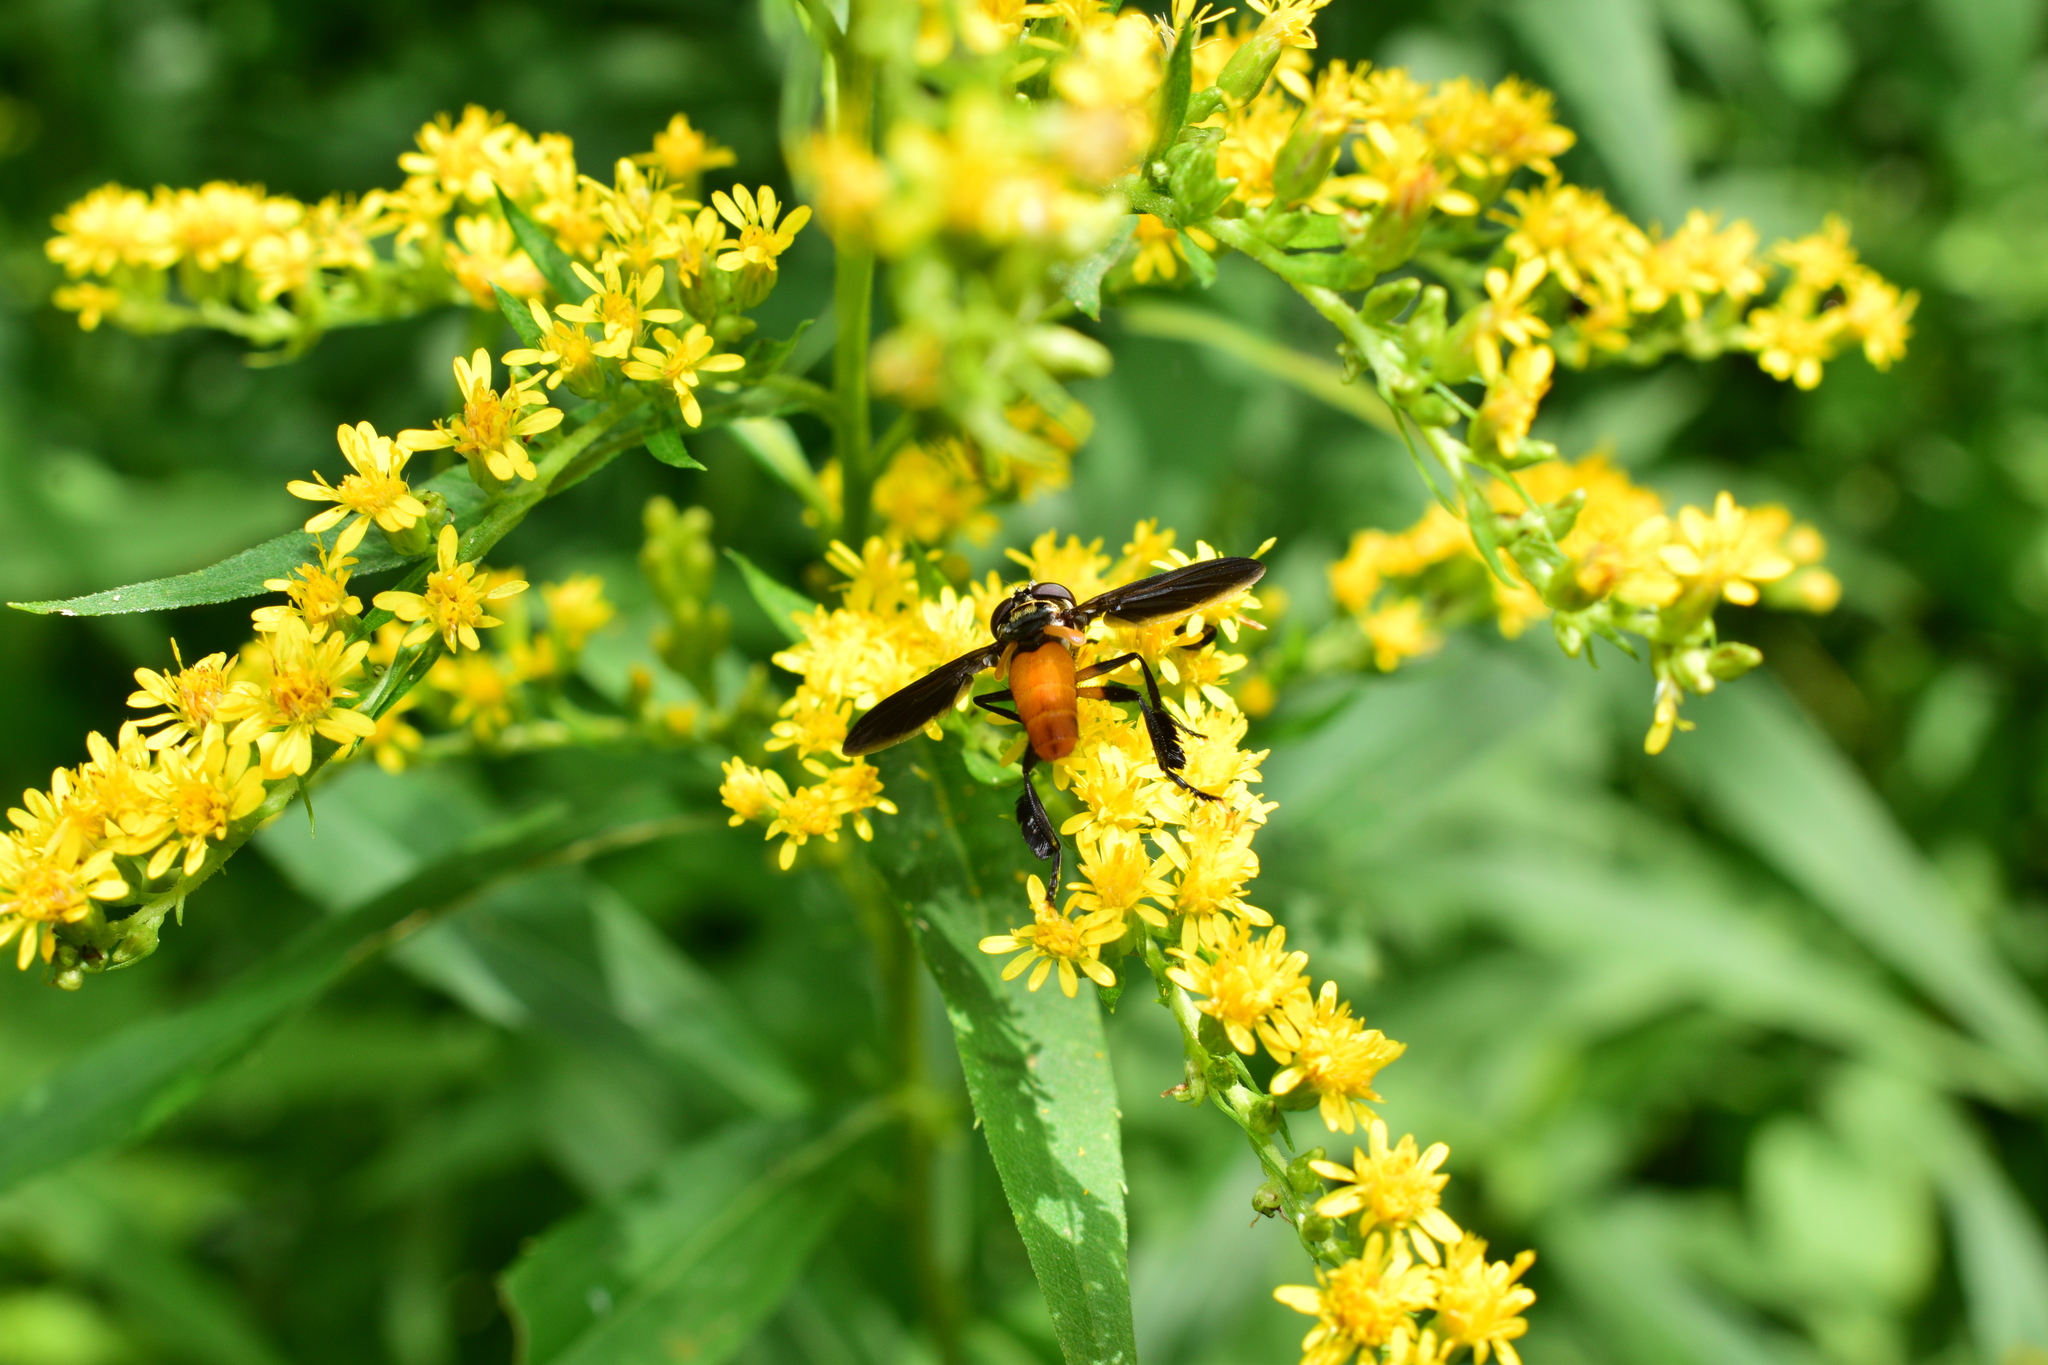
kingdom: Animalia
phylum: Arthropoda
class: Insecta
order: Diptera
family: Tachinidae
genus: Trichopoda
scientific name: Trichopoda pennipes
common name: Tachinid fly
